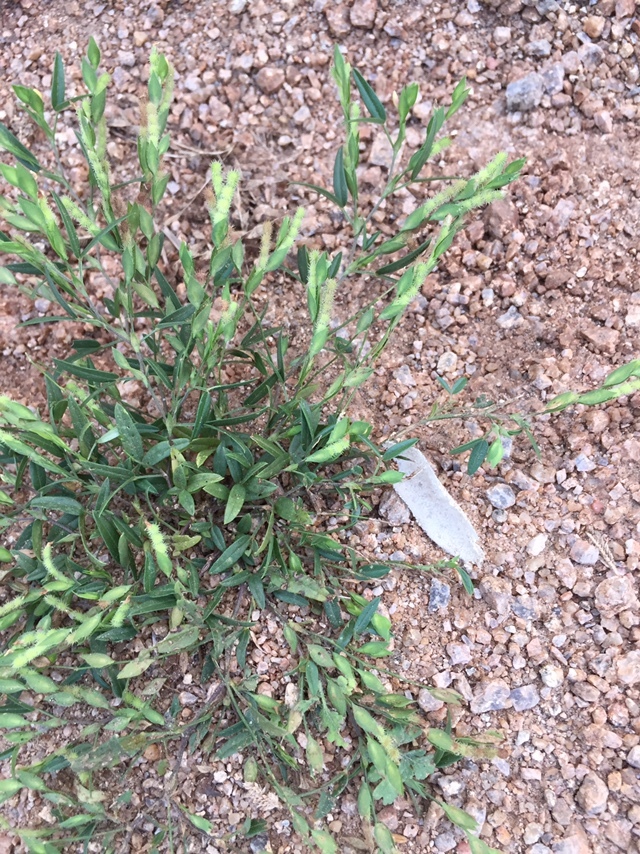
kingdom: Plantae
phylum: Tracheophyta
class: Magnoliopsida
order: Fabales
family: Fabaceae
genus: Zornia
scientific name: Zornia gibbosa
